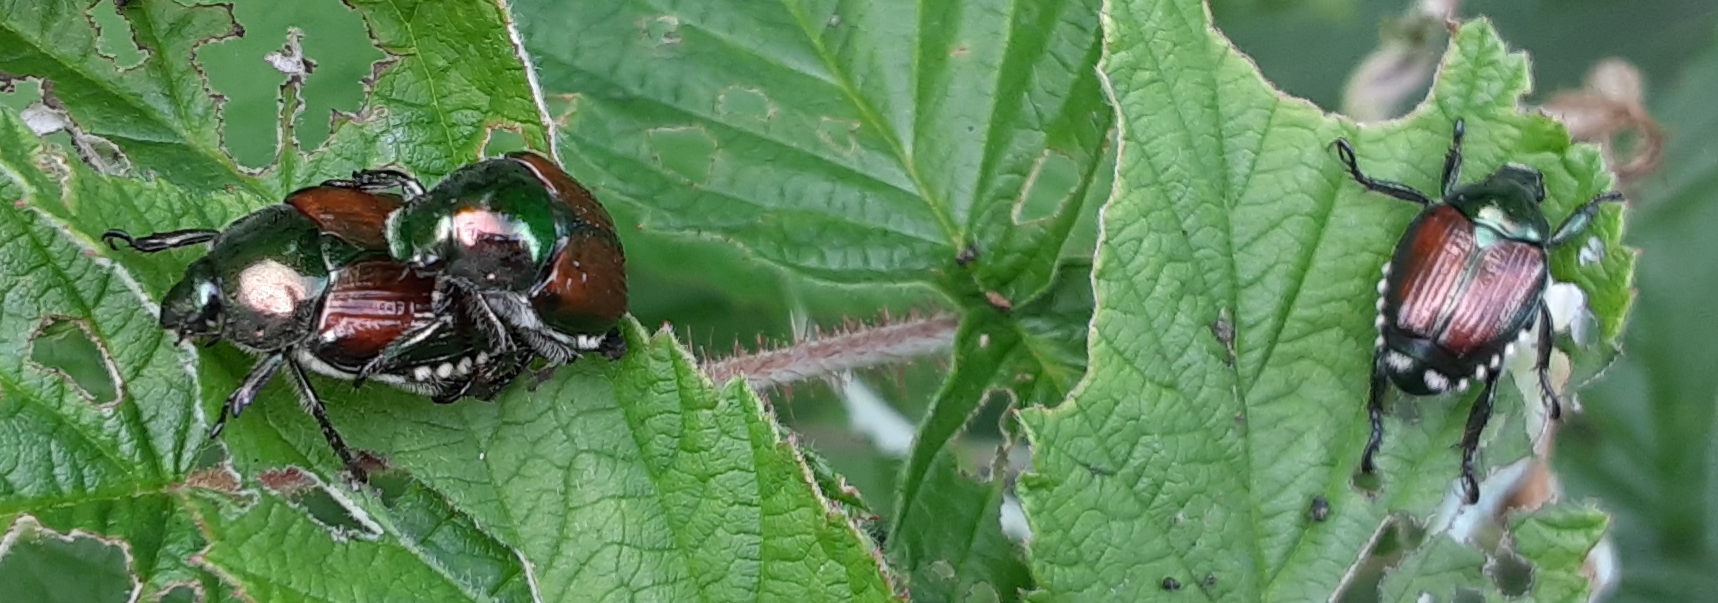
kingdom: Animalia
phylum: Arthropoda
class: Insecta
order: Coleoptera
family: Scarabaeidae
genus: Popillia
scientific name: Popillia japonica
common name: Japanese beetle
